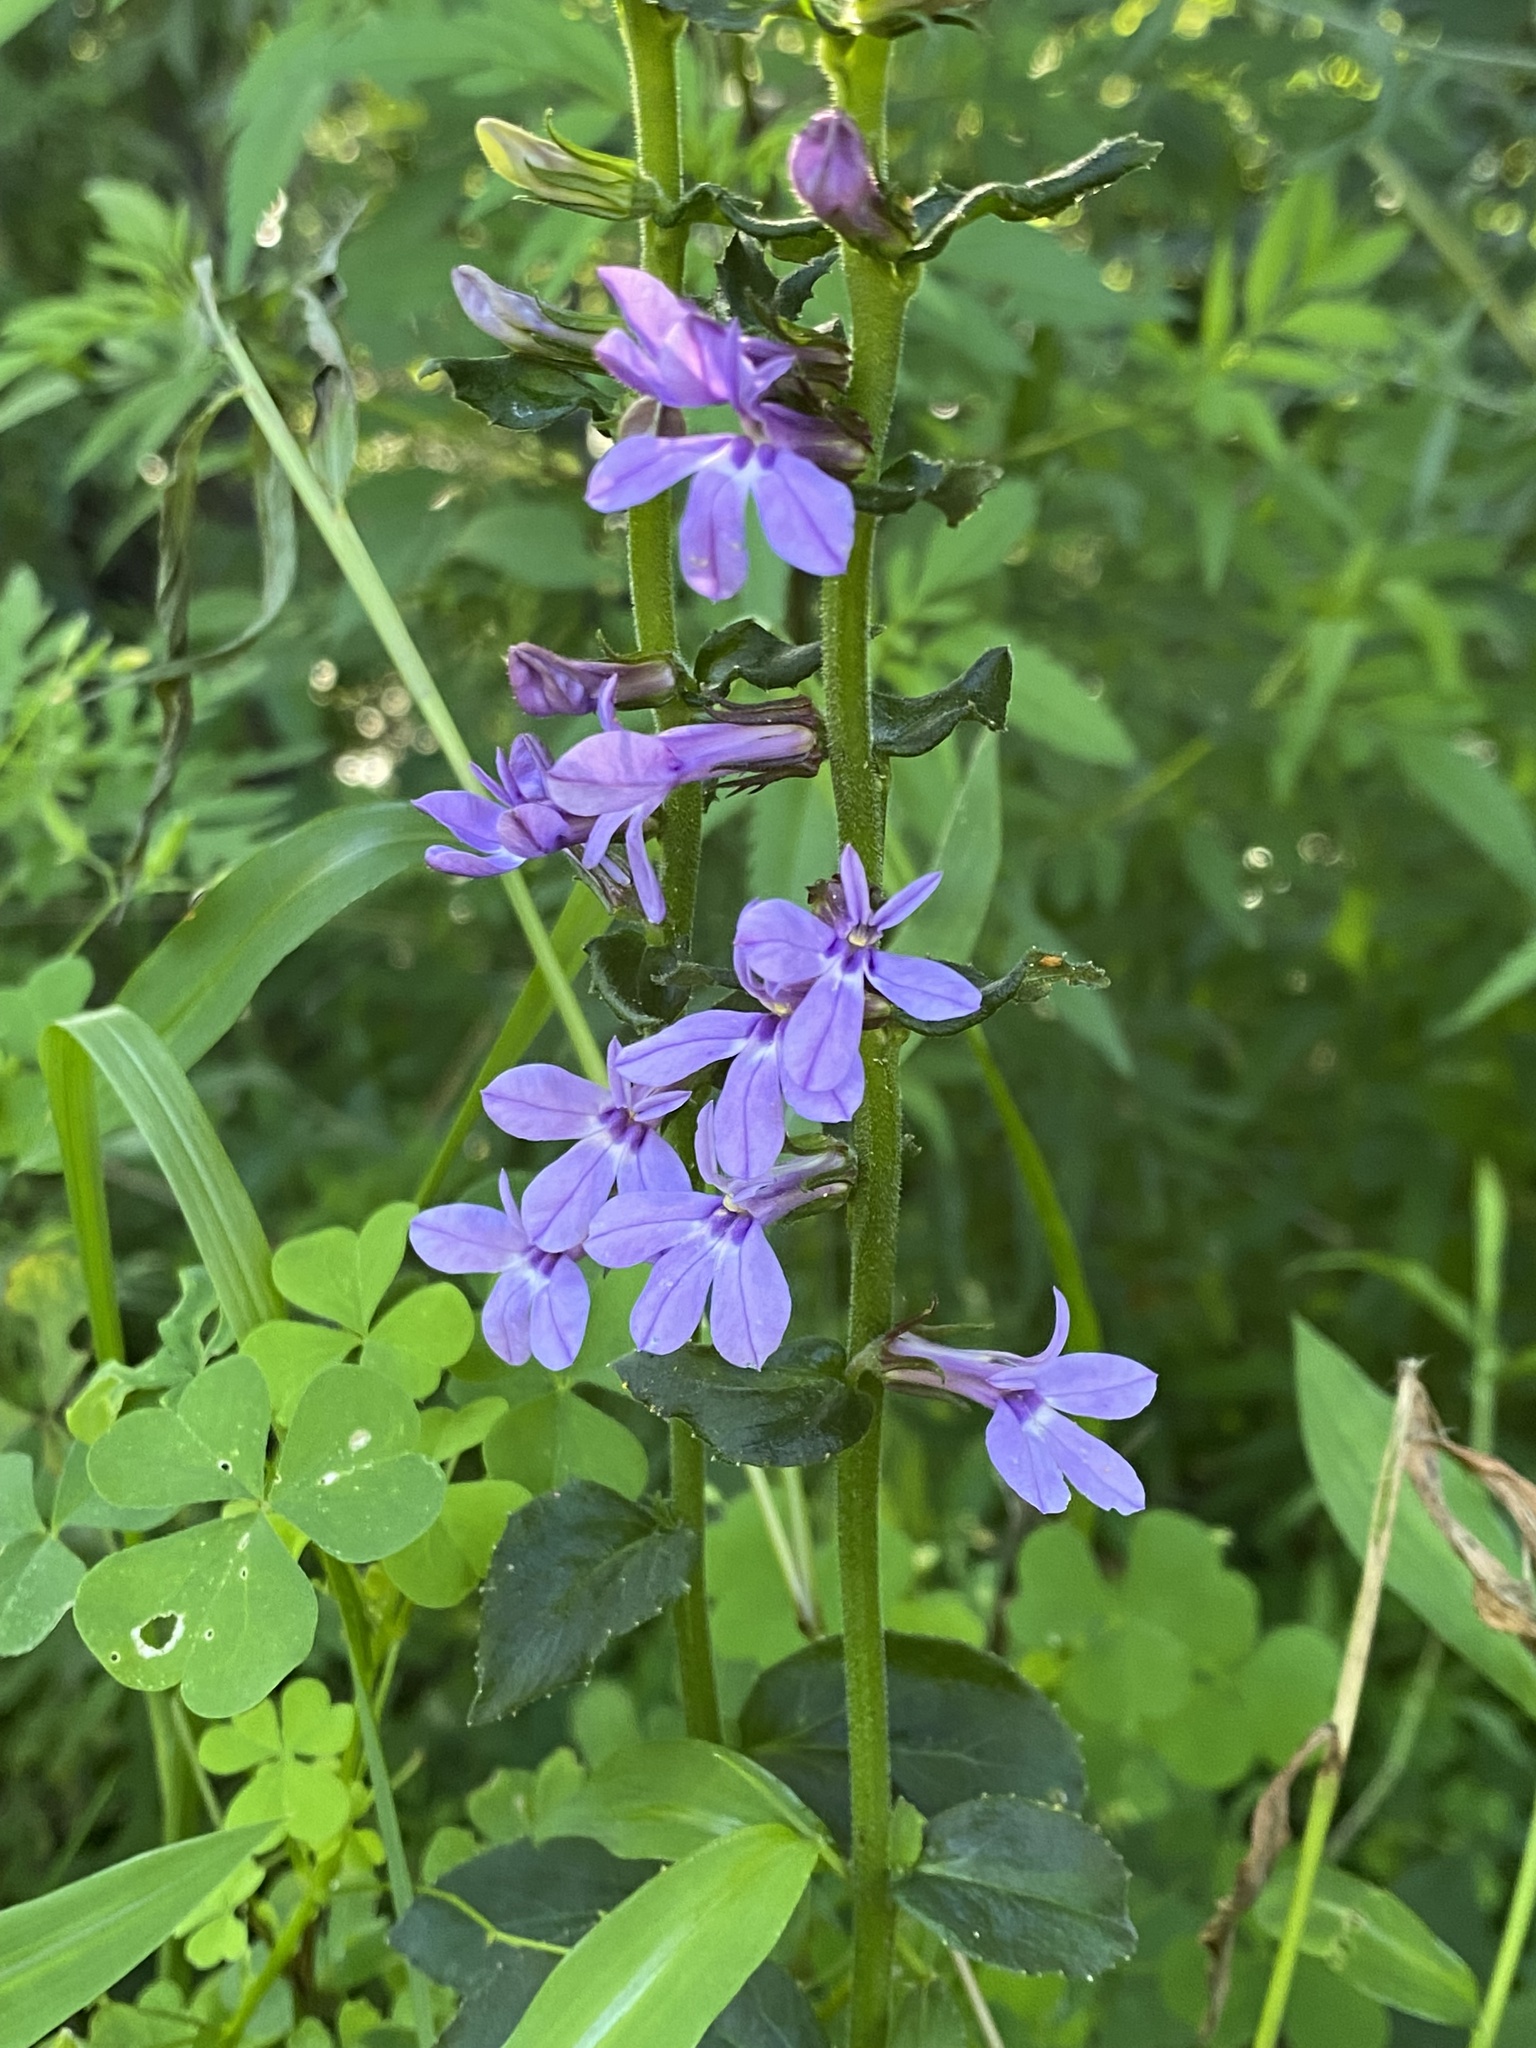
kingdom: Plantae
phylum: Tracheophyta
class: Magnoliopsida
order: Asterales
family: Campanulaceae
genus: Lobelia
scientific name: Lobelia puberula
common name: Purple dewdrop
